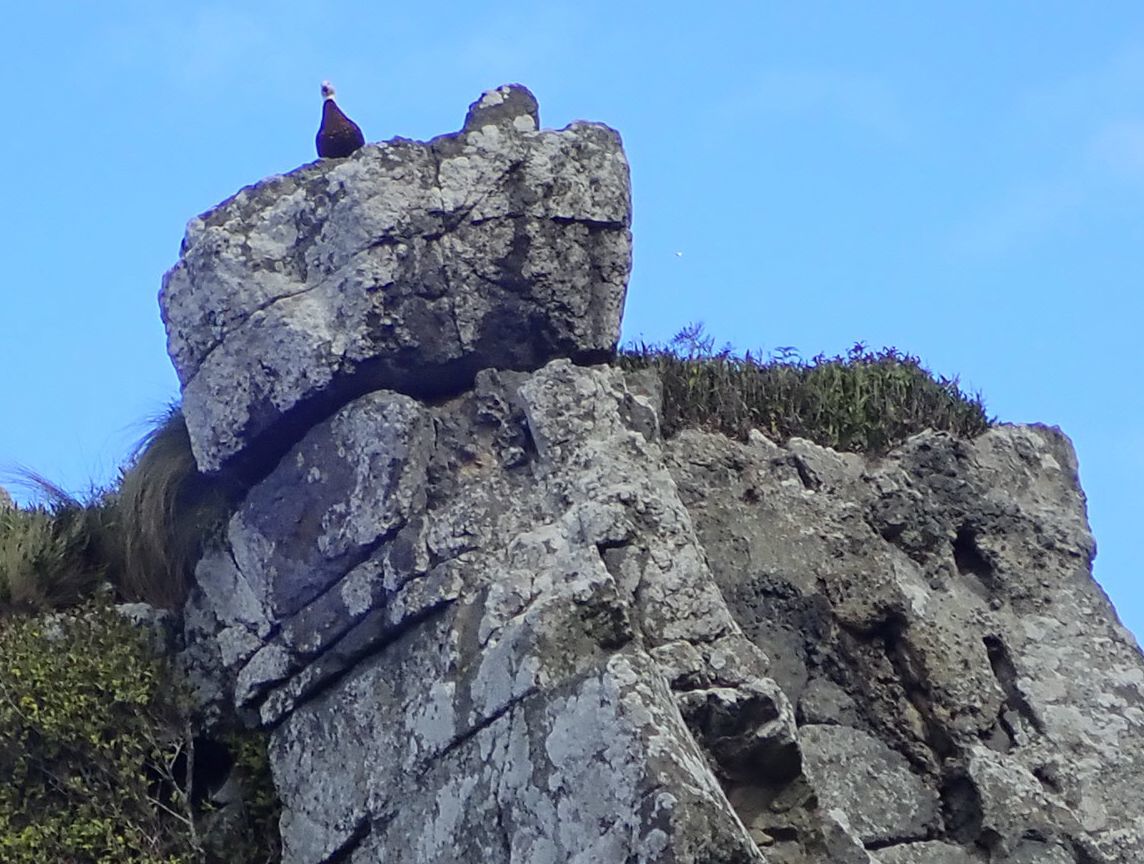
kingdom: Animalia
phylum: Chordata
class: Aves
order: Anseriformes
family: Anatidae
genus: Tadorna
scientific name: Tadorna variegata
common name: Paradise shelduck
